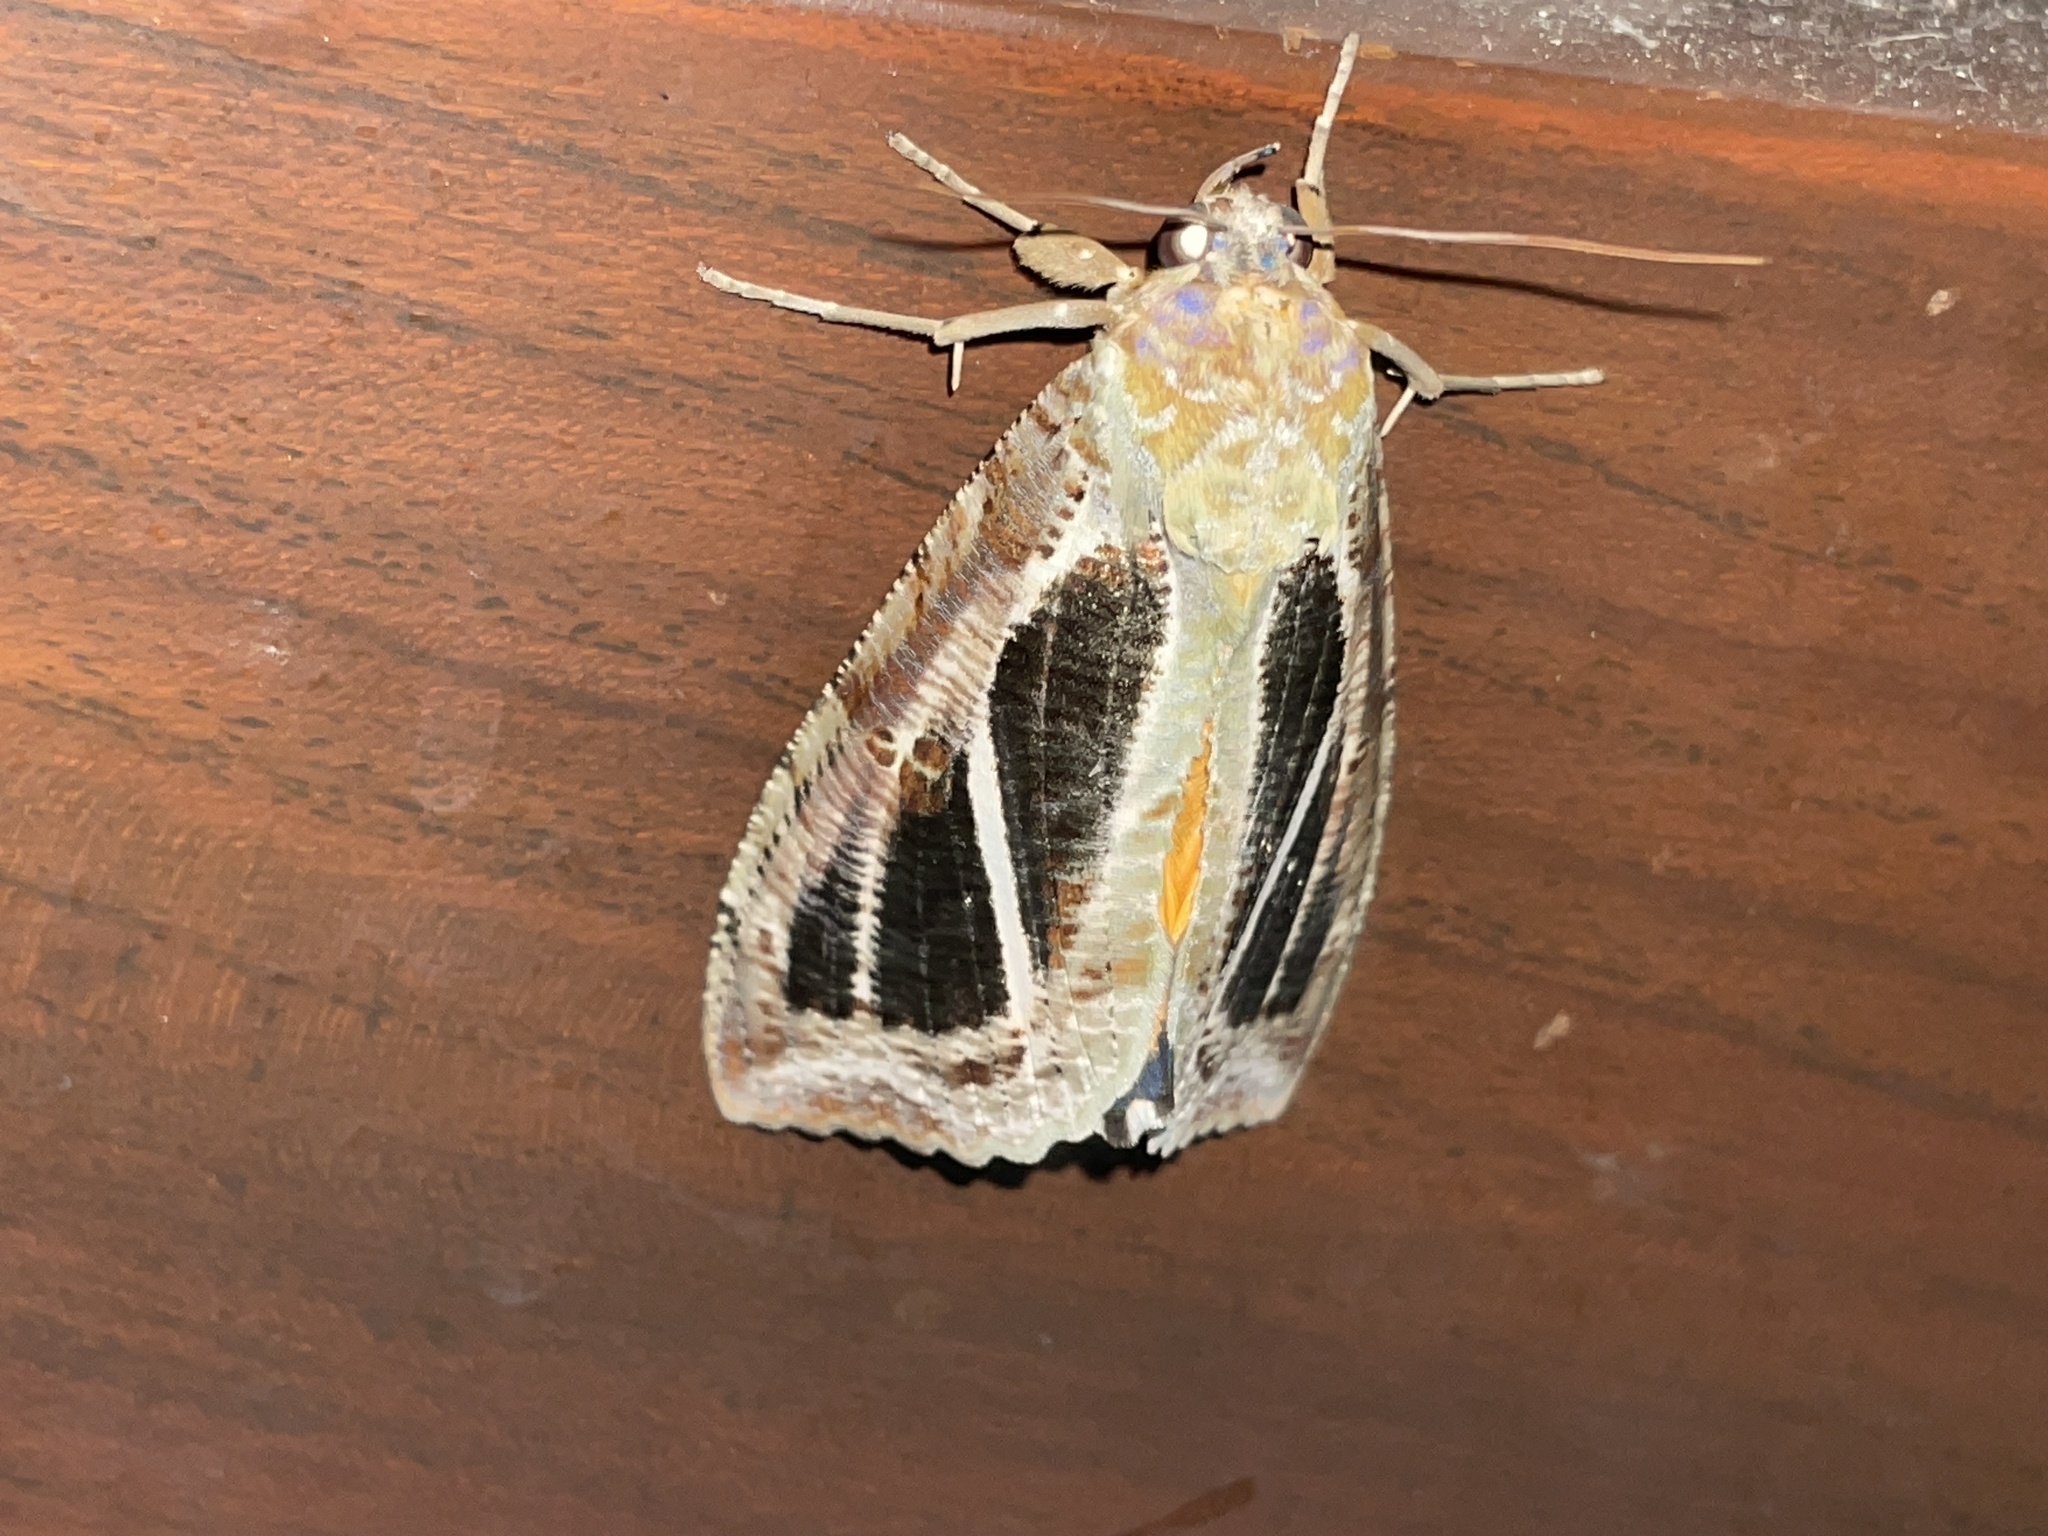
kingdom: Animalia
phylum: Arthropoda
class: Insecta
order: Lepidoptera
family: Erebidae
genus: Eudocima
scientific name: Eudocima materna
